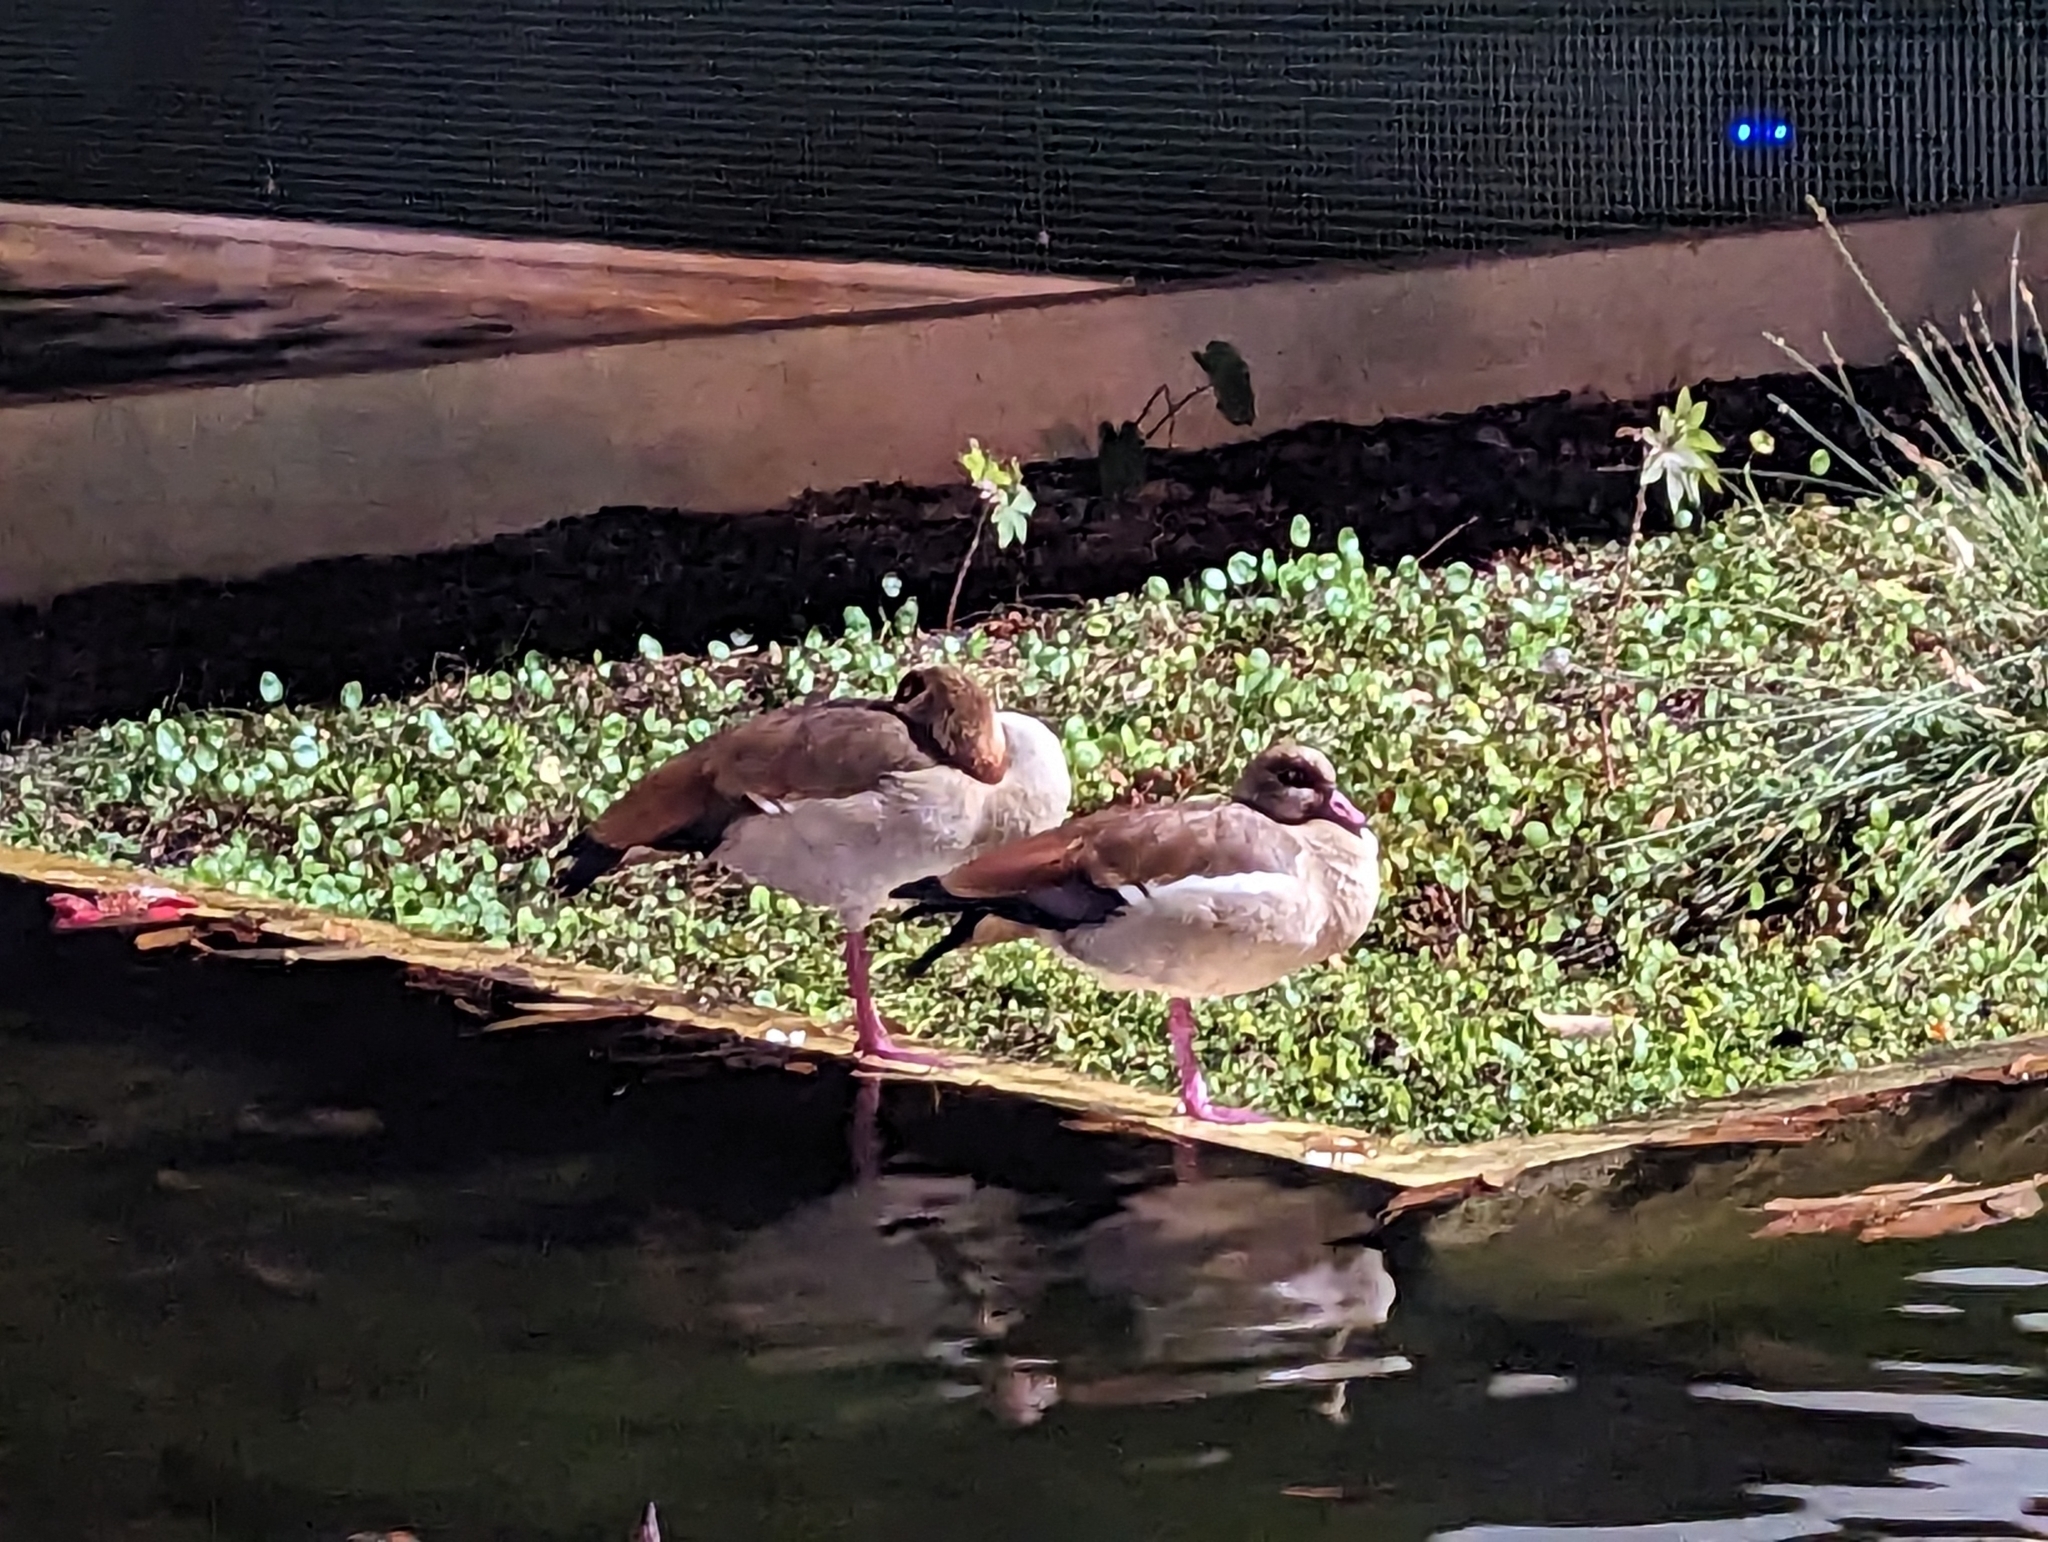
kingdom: Animalia
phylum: Chordata
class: Aves
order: Anseriformes
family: Anatidae
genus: Alopochen
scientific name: Alopochen aegyptiaca
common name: Egyptian goose
